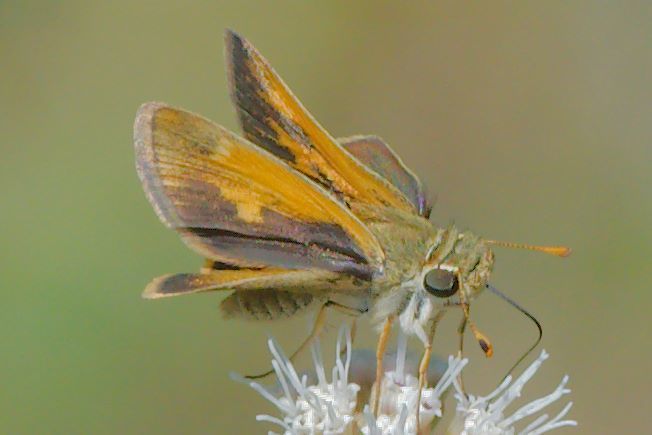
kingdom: Animalia
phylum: Arthropoda
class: Insecta
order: Lepidoptera
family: Hesperiidae
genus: Polites
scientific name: Polites themistocles
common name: Tawny-edged skipper
